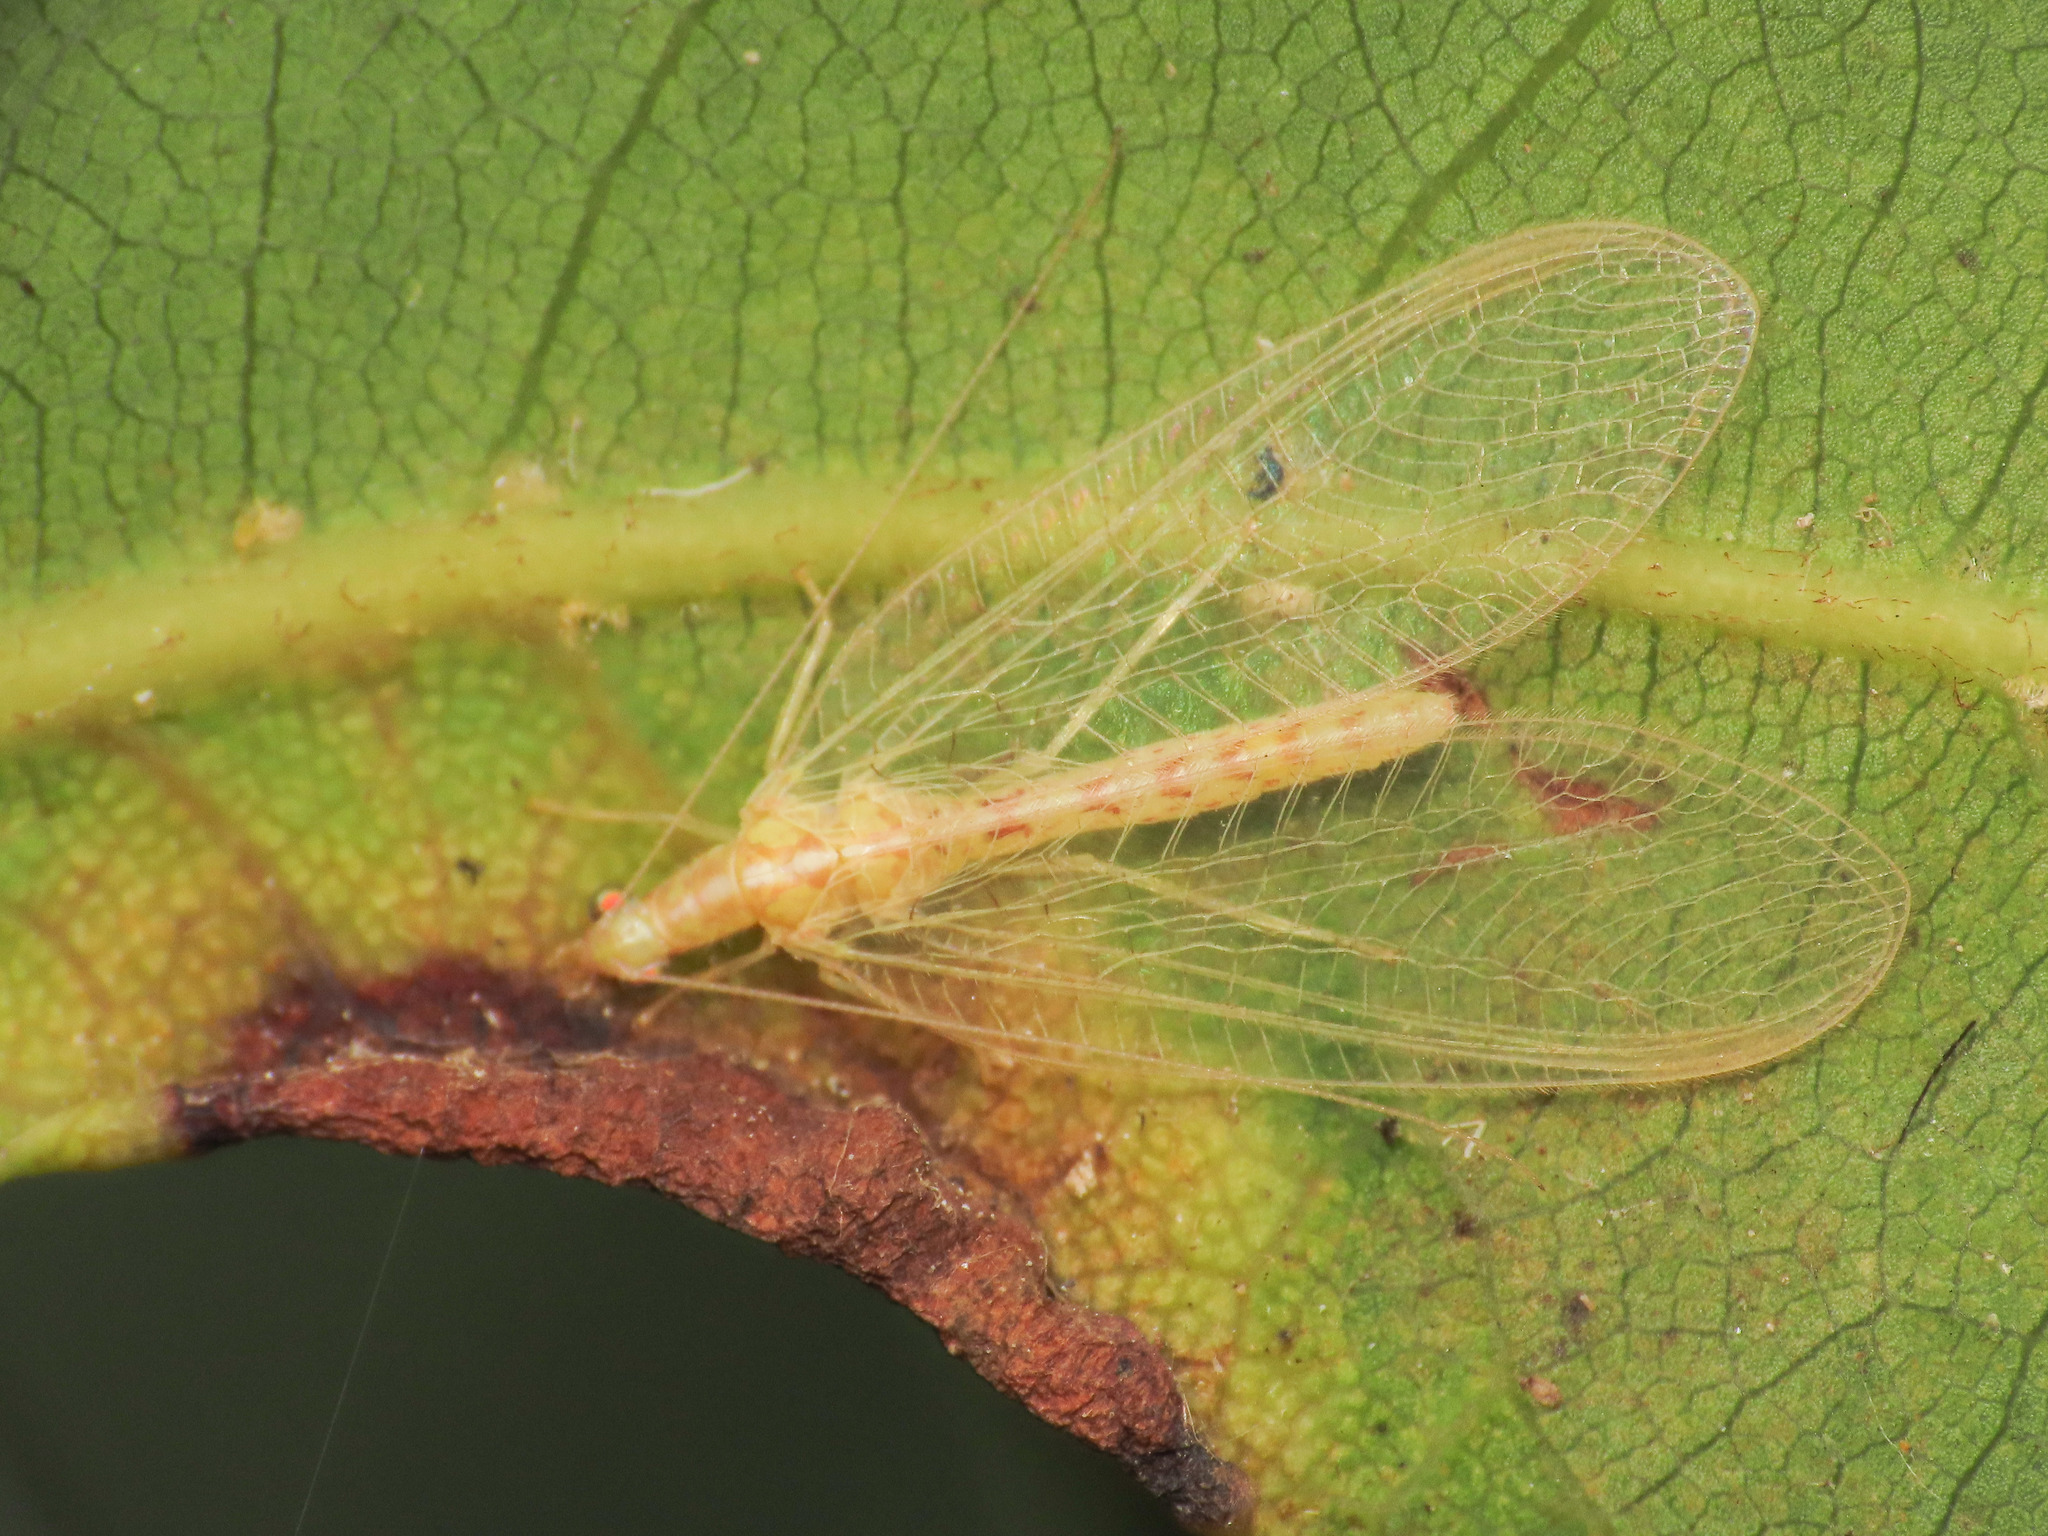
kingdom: Animalia
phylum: Arthropoda
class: Insecta
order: Neuroptera
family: Chrysopidae
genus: Chrysoperla
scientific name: Chrysoperla
